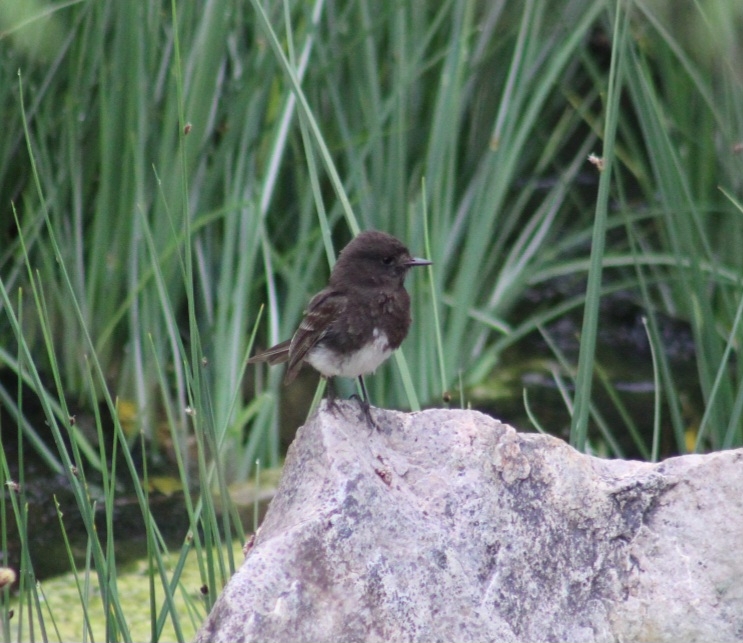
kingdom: Animalia
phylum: Chordata
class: Aves
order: Passeriformes
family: Tyrannidae
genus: Sayornis
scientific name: Sayornis nigricans
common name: Black phoebe
